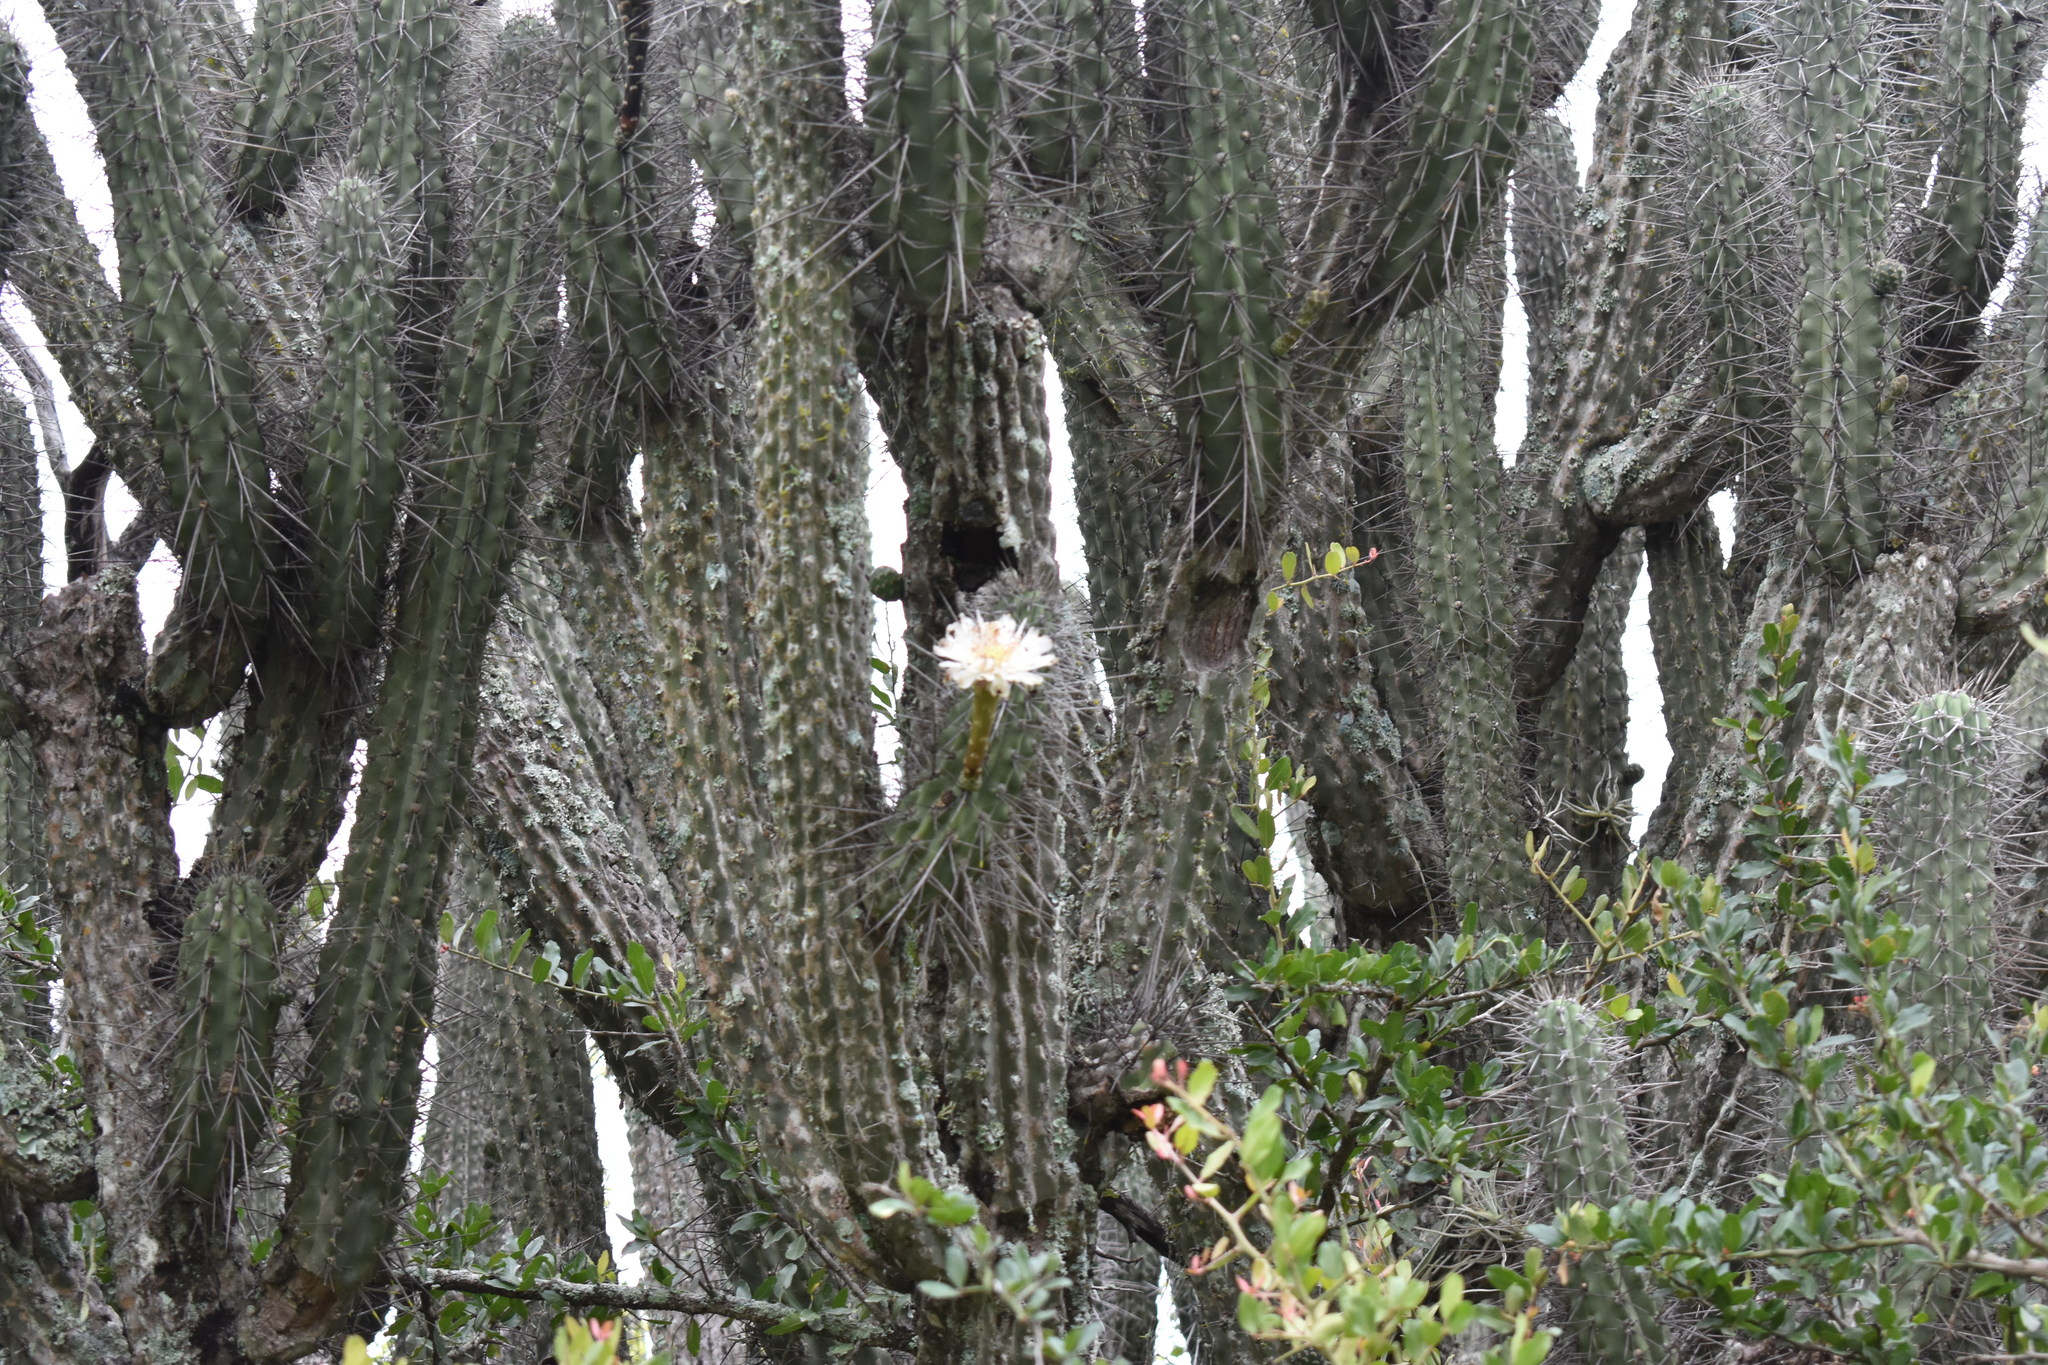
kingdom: Plantae
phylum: Tracheophyta
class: Magnoliopsida
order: Caryophyllales
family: Cactaceae
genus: Stetsonia
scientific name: Stetsonia coryne
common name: Toothpick cactus
